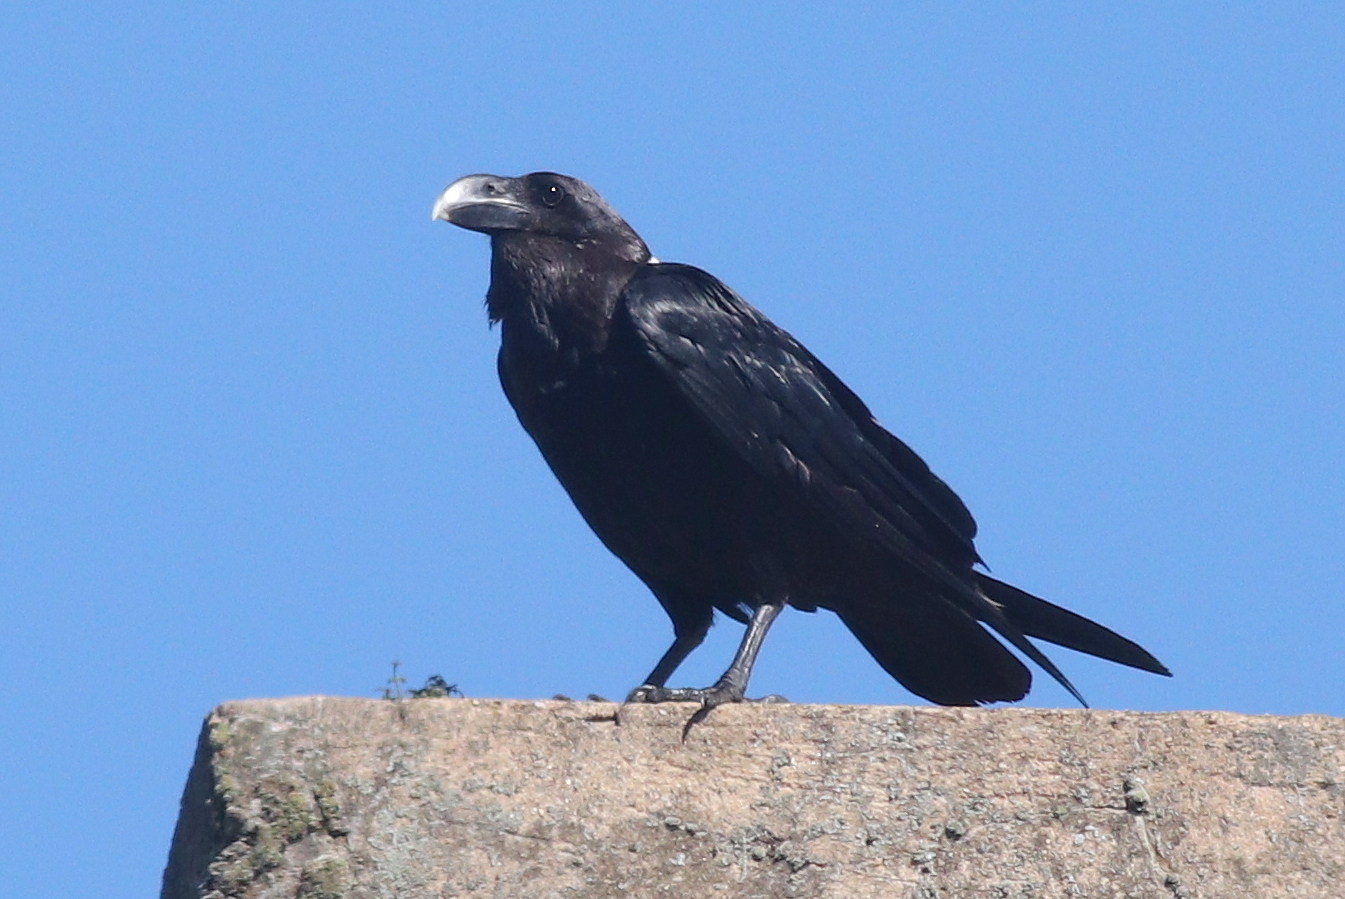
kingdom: Animalia
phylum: Chordata
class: Aves
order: Passeriformes
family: Corvidae
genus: Corvus
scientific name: Corvus albicollis
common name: White-necked raven
